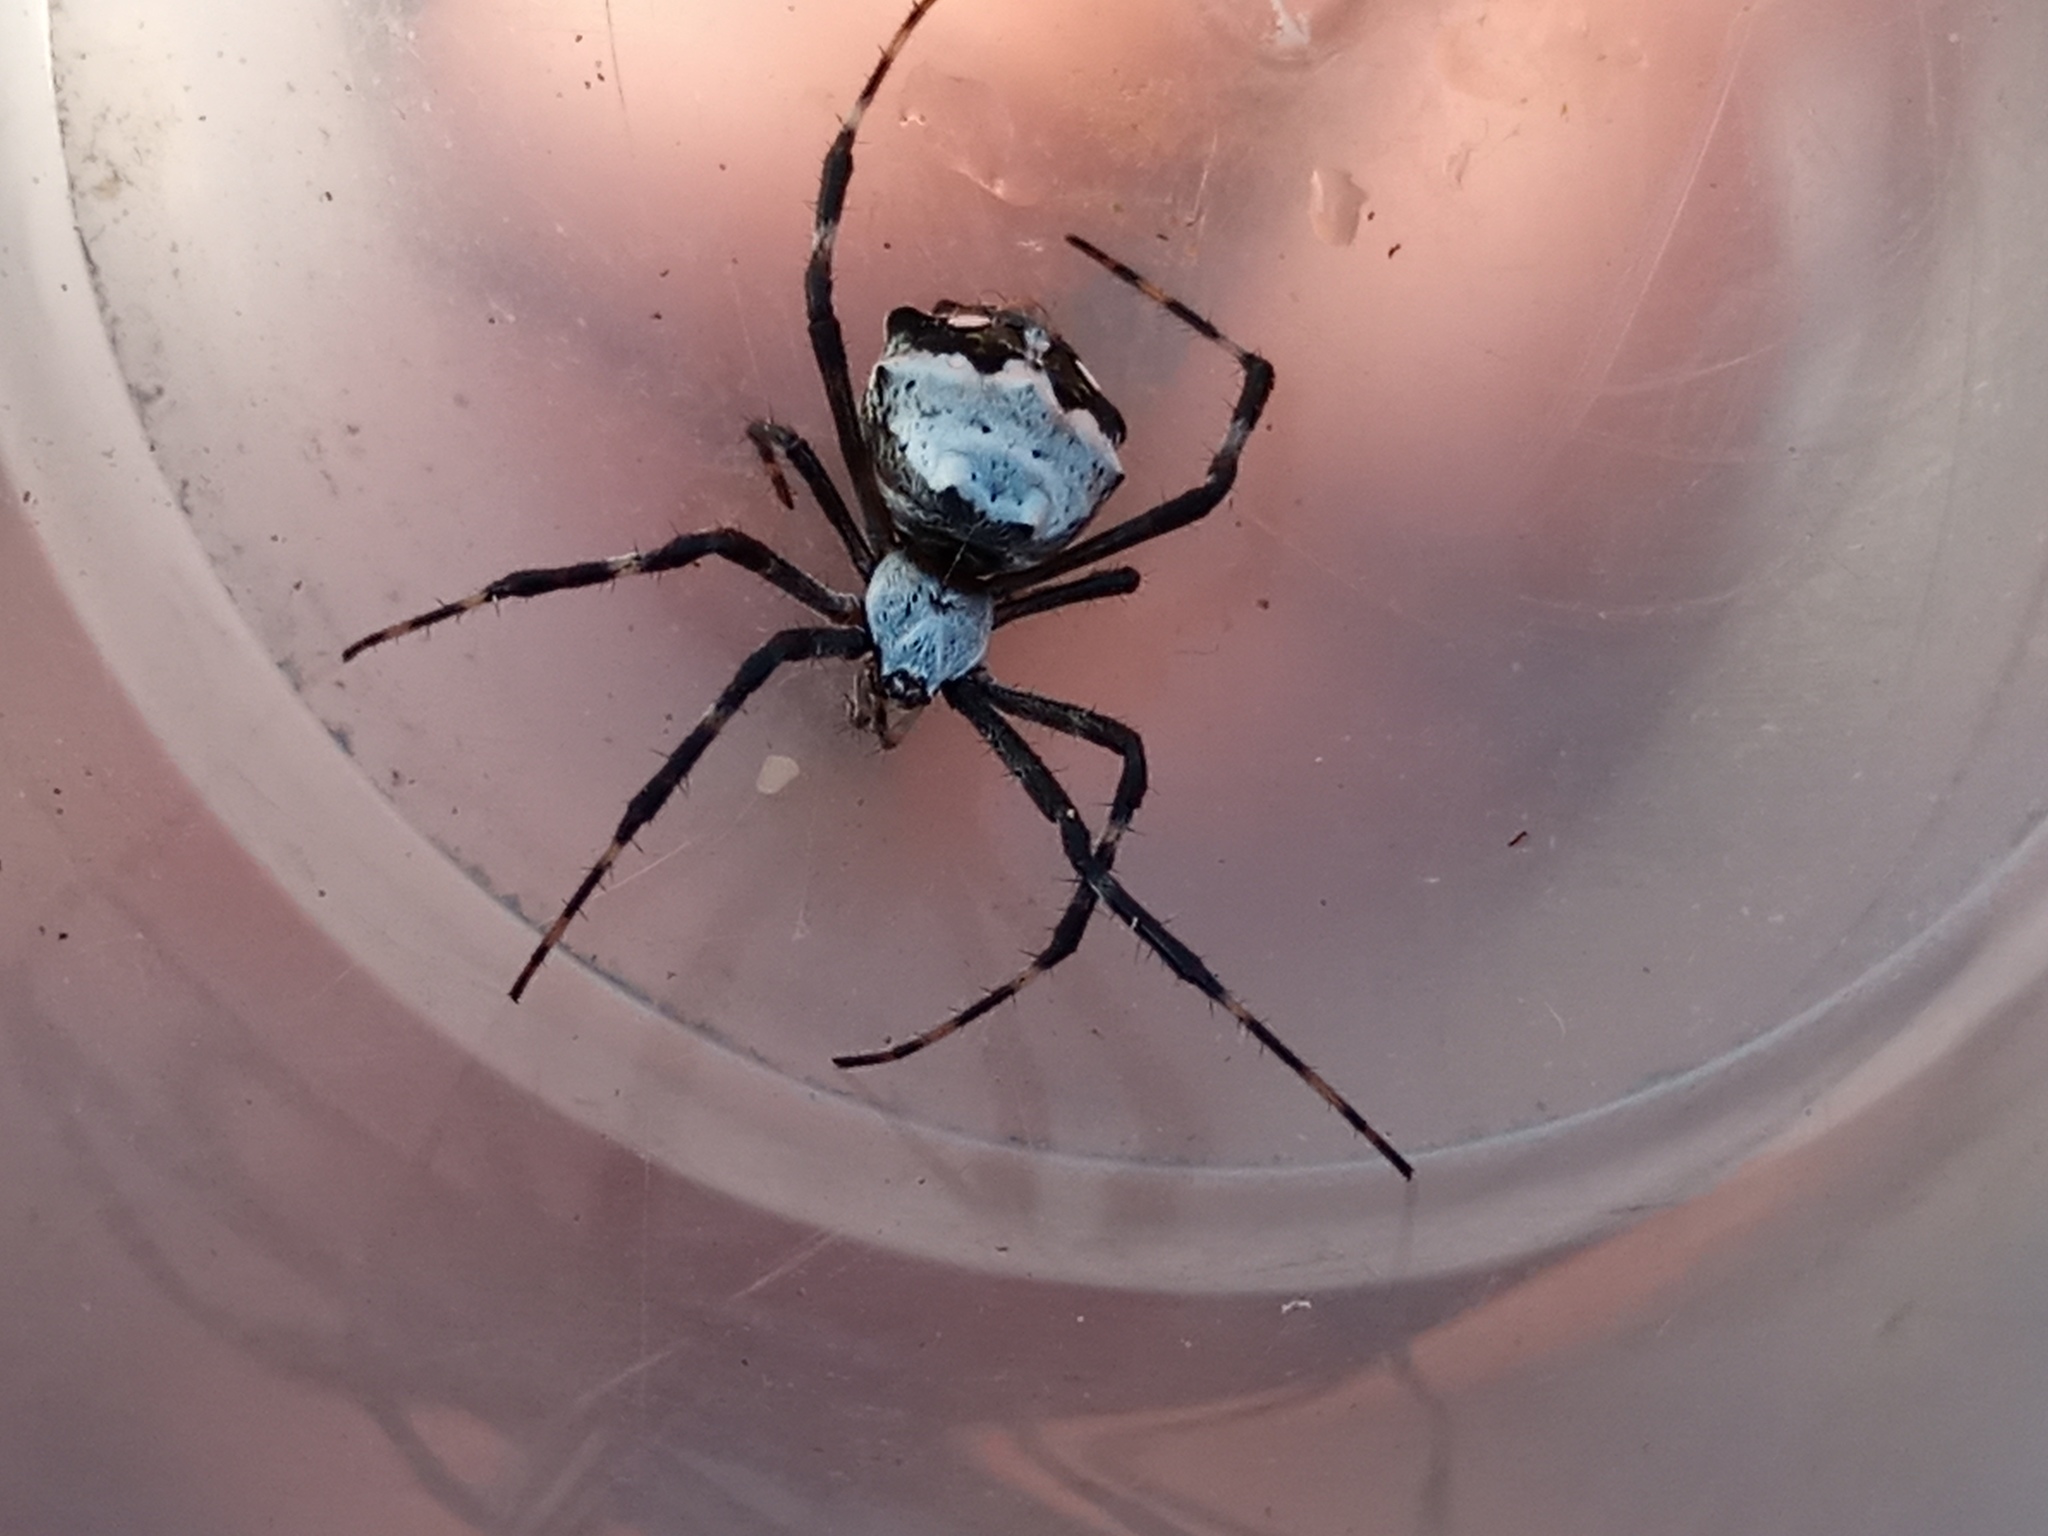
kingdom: Animalia
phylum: Arthropoda
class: Arachnida
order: Araneae
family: Araneidae
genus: Argiope
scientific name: Argiope argentata
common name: Orb weavers
